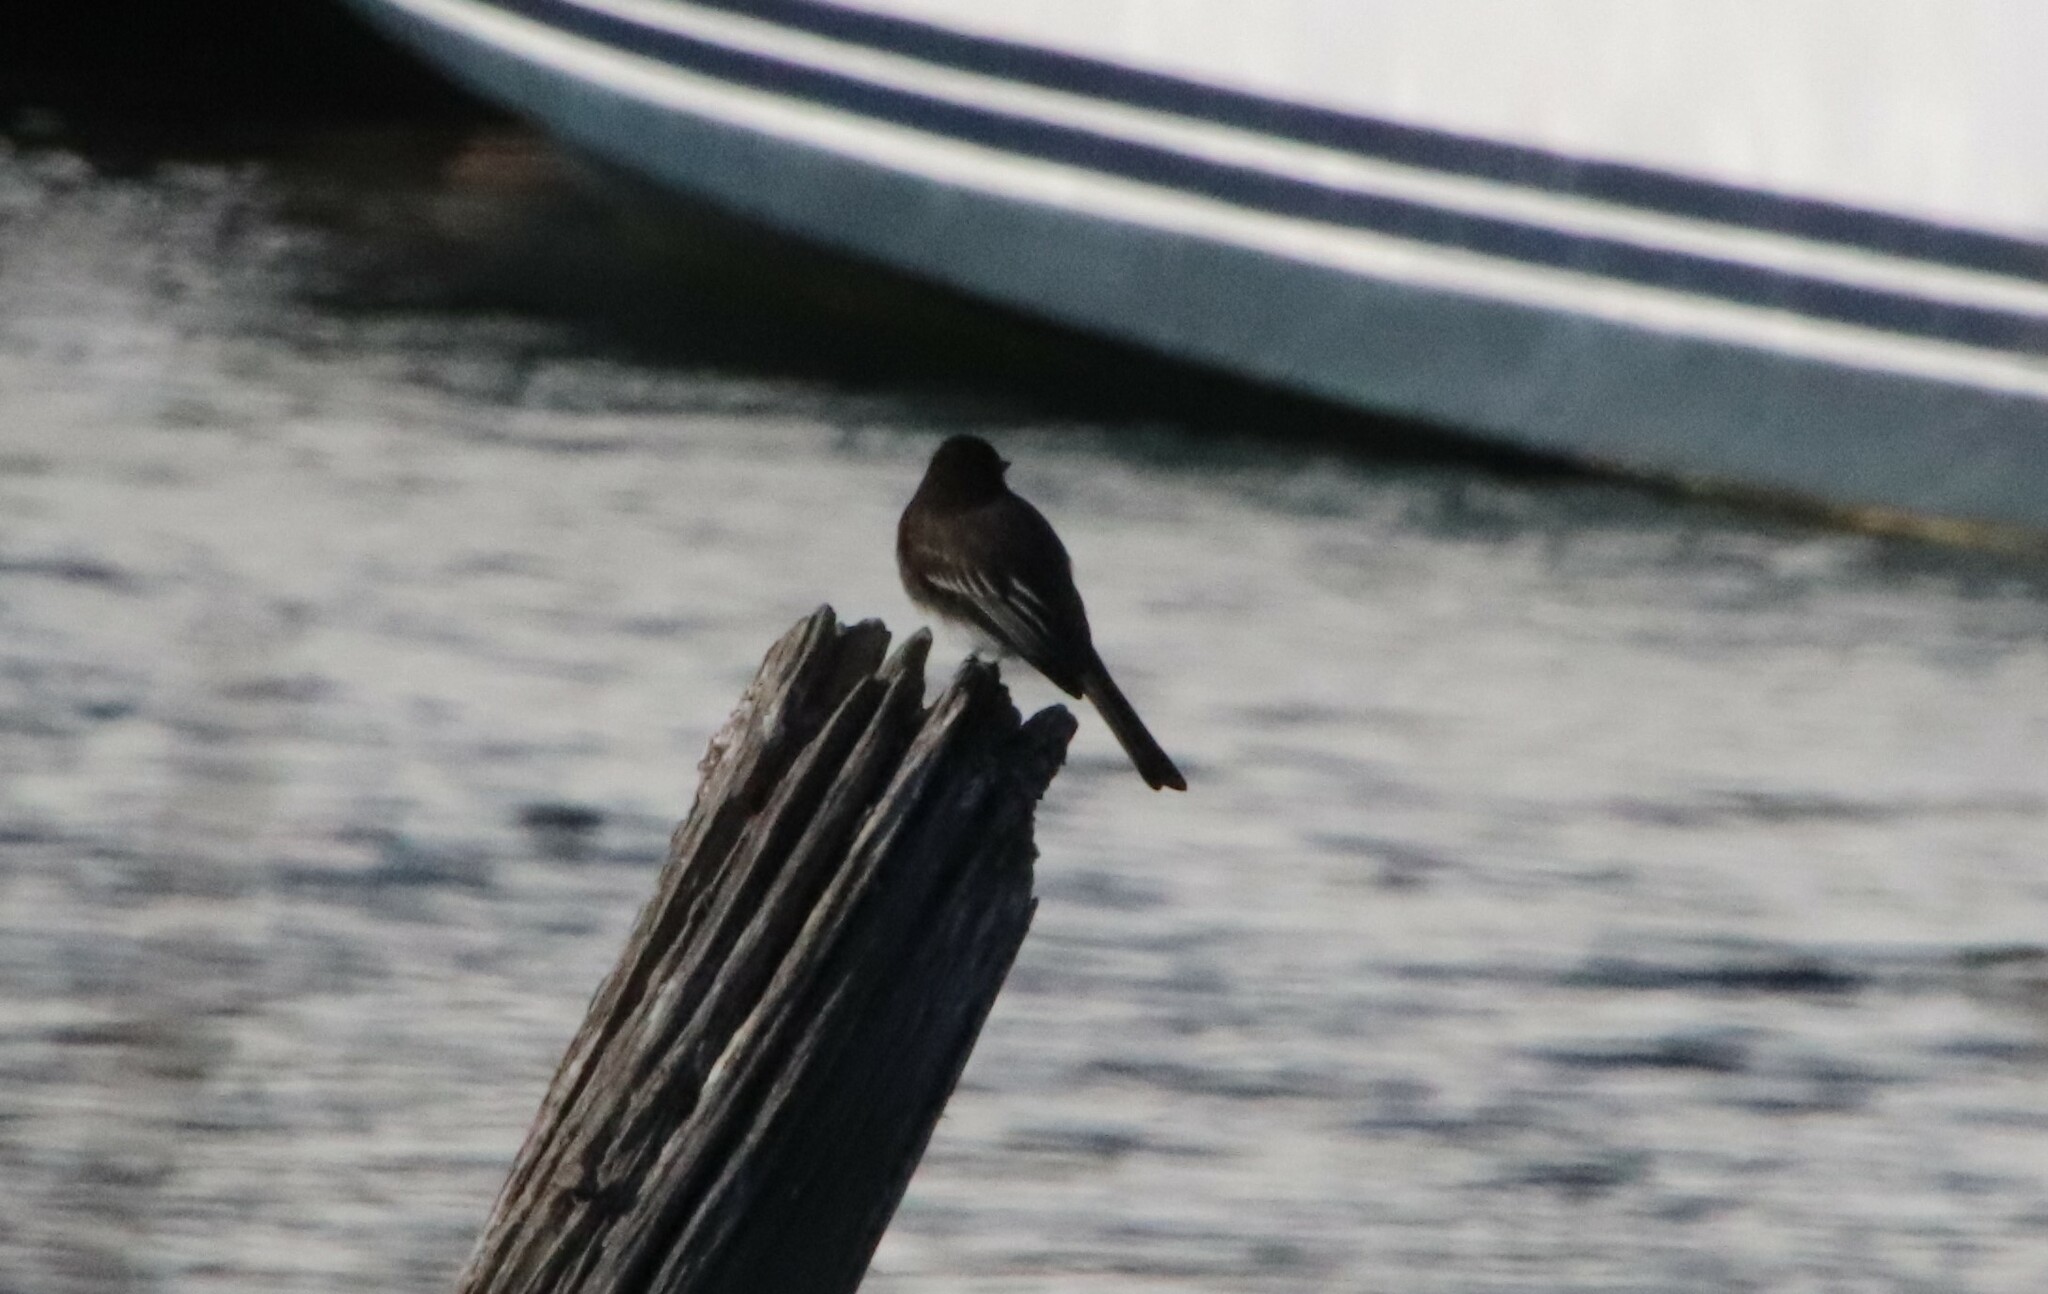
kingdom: Animalia
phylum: Chordata
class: Aves
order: Passeriformes
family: Tyrannidae
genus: Sayornis
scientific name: Sayornis nigricans
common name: Black phoebe
